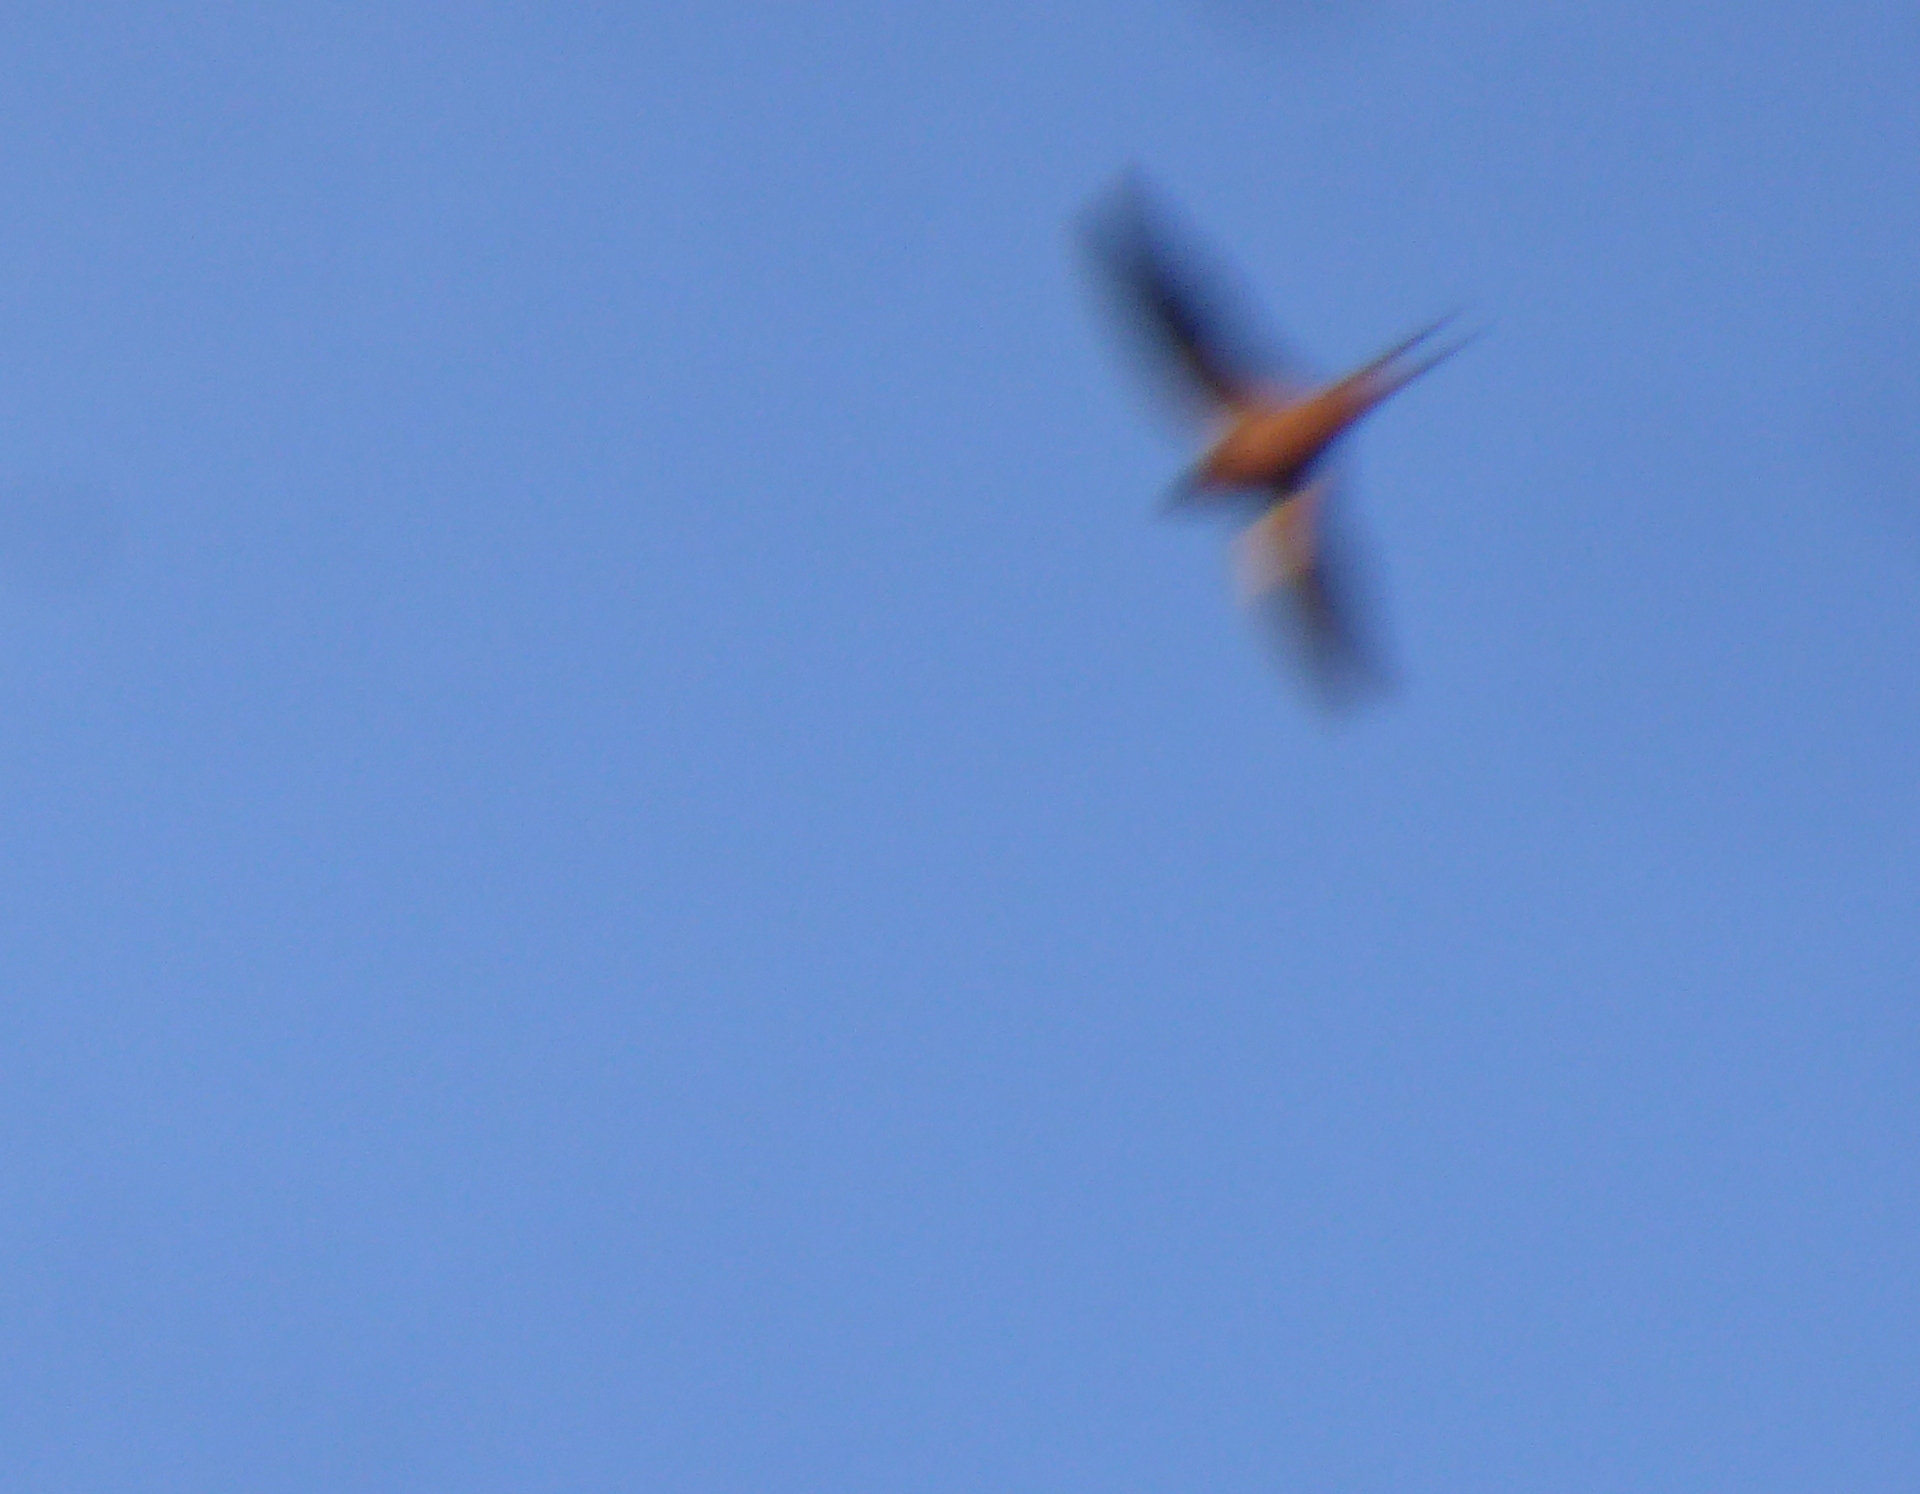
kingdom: Animalia
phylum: Chordata
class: Aves
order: Passeriformes
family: Hirundinidae
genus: Hirundo
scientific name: Hirundo rustica
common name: Barn swallow
